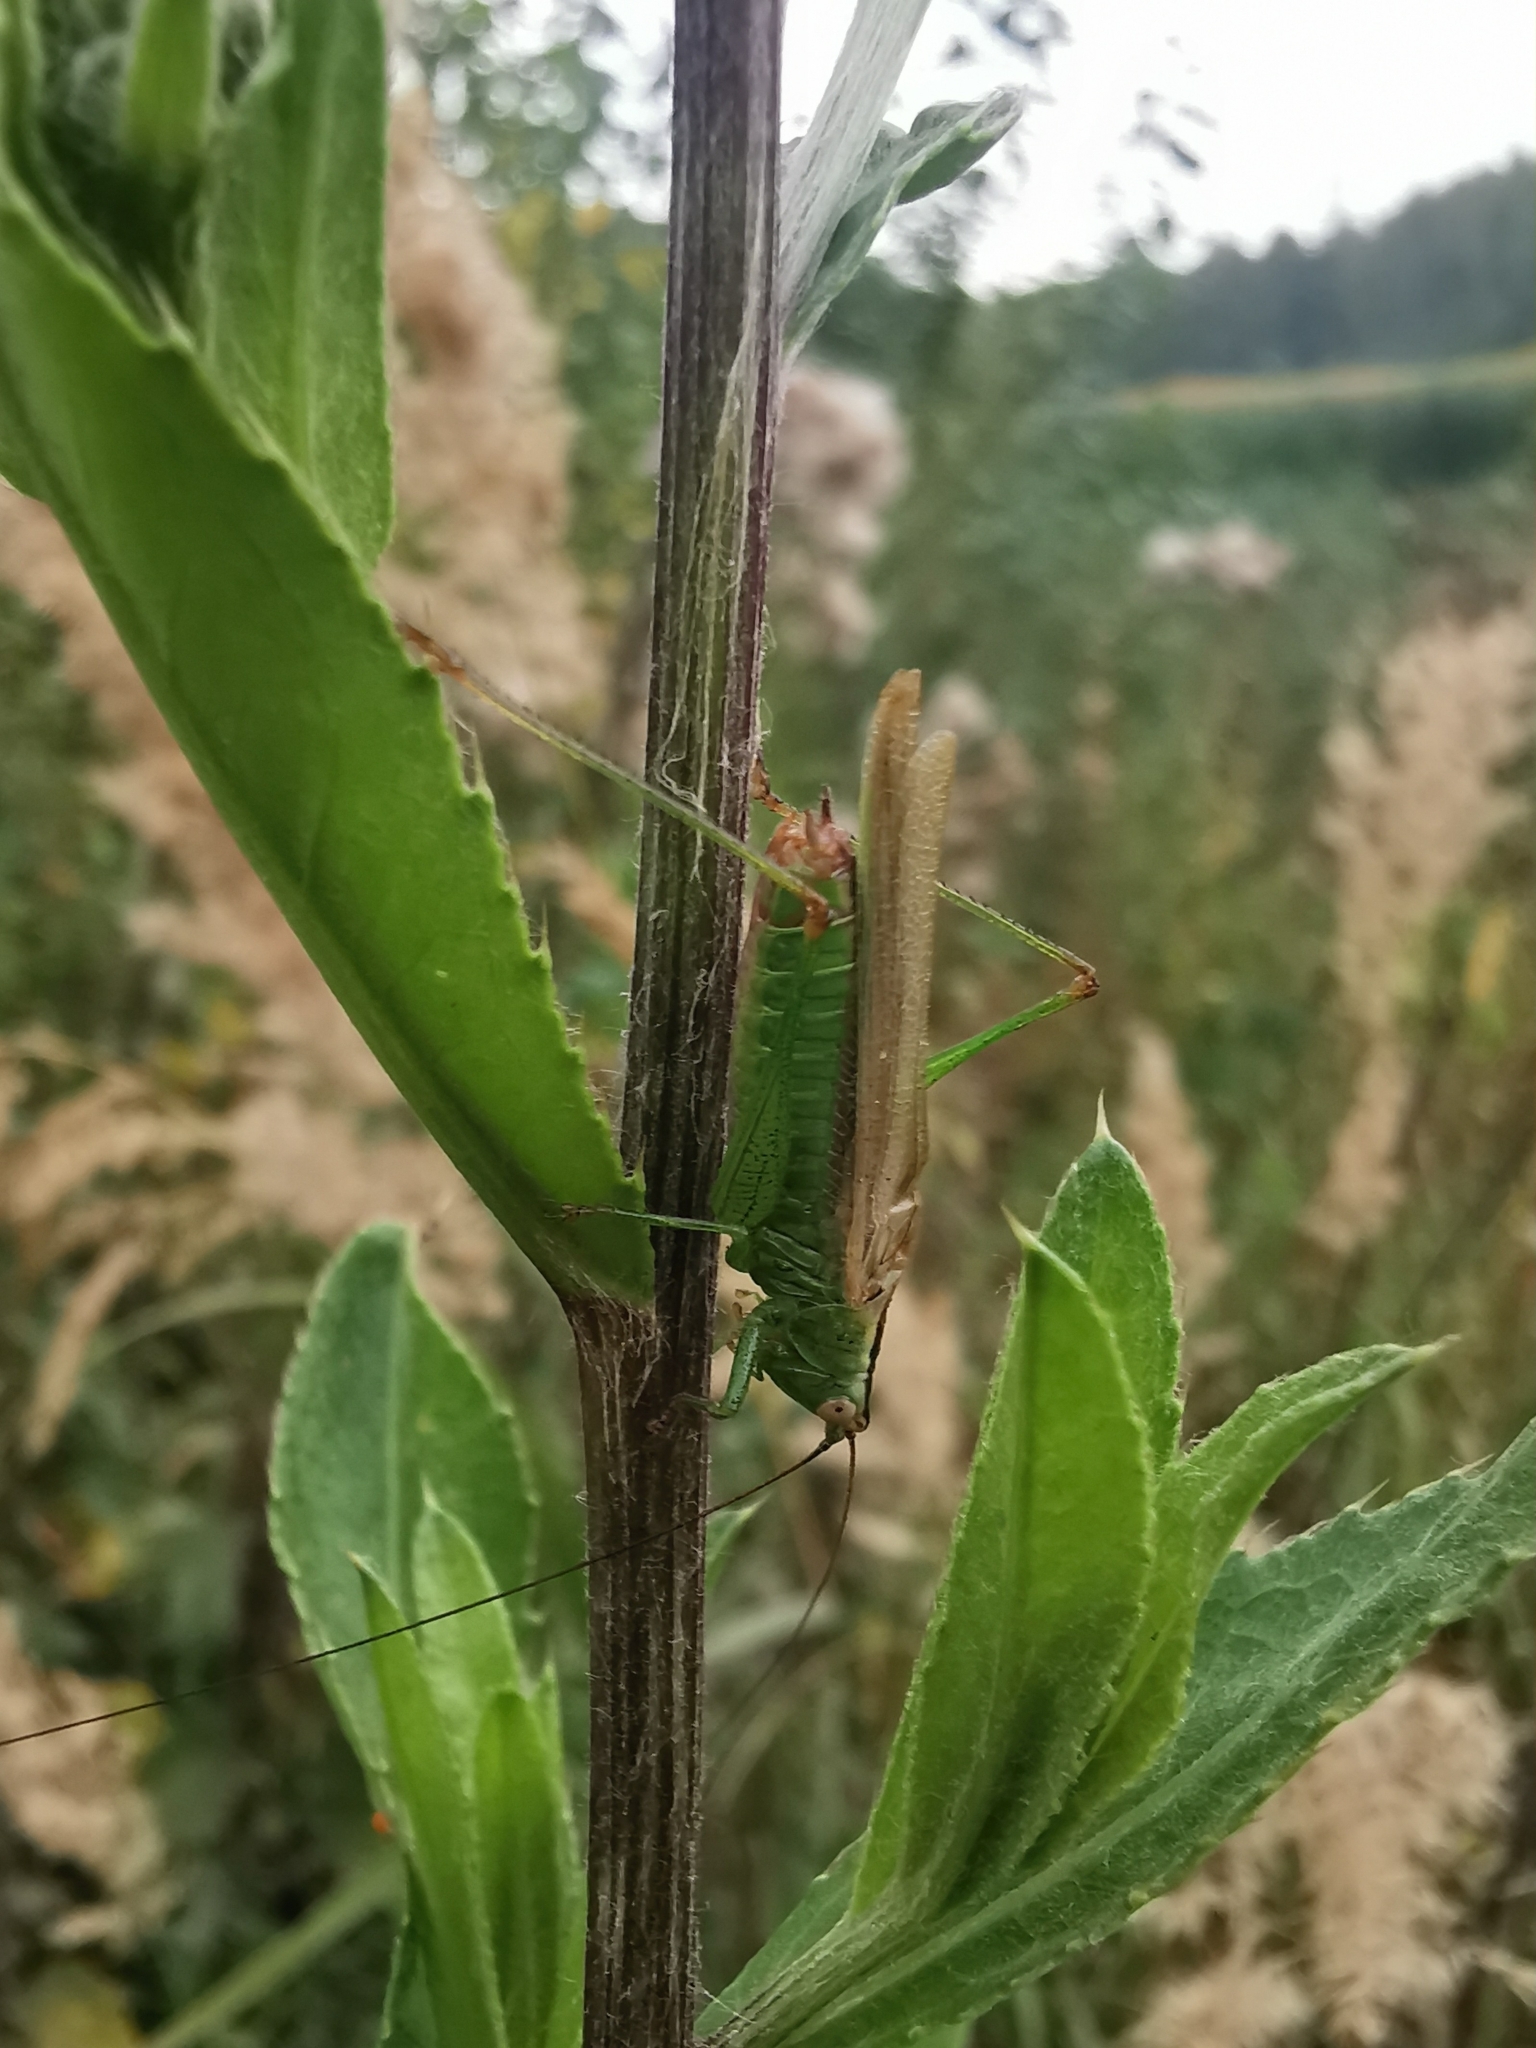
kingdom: Animalia
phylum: Arthropoda
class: Insecta
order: Orthoptera
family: Tettigoniidae
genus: Conocephalus
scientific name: Conocephalus fuscus
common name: Long-winged conehead
